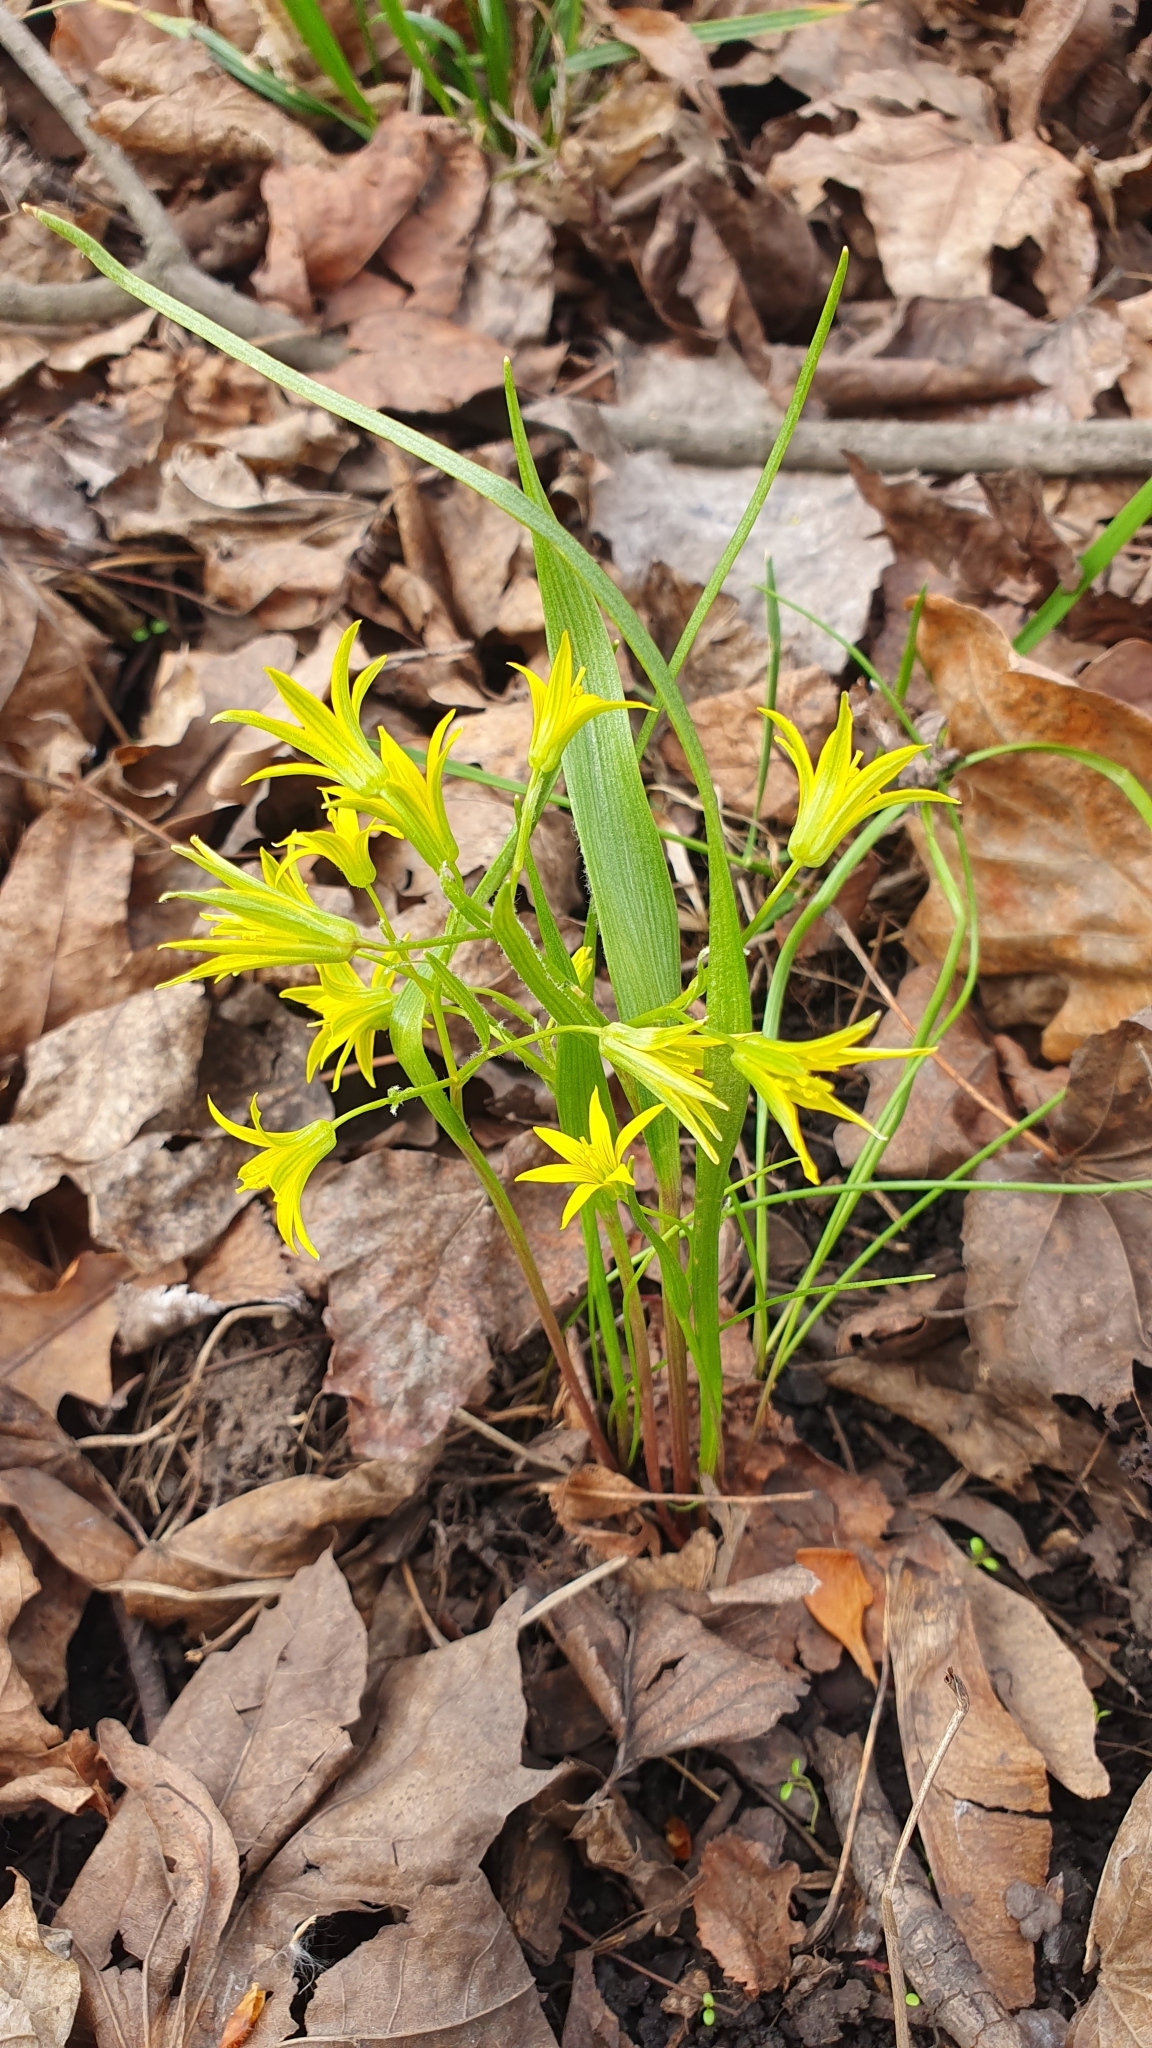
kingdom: Plantae
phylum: Tracheophyta
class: Liliopsida
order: Liliales
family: Liliaceae
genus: Gagea
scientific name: Gagea minima
